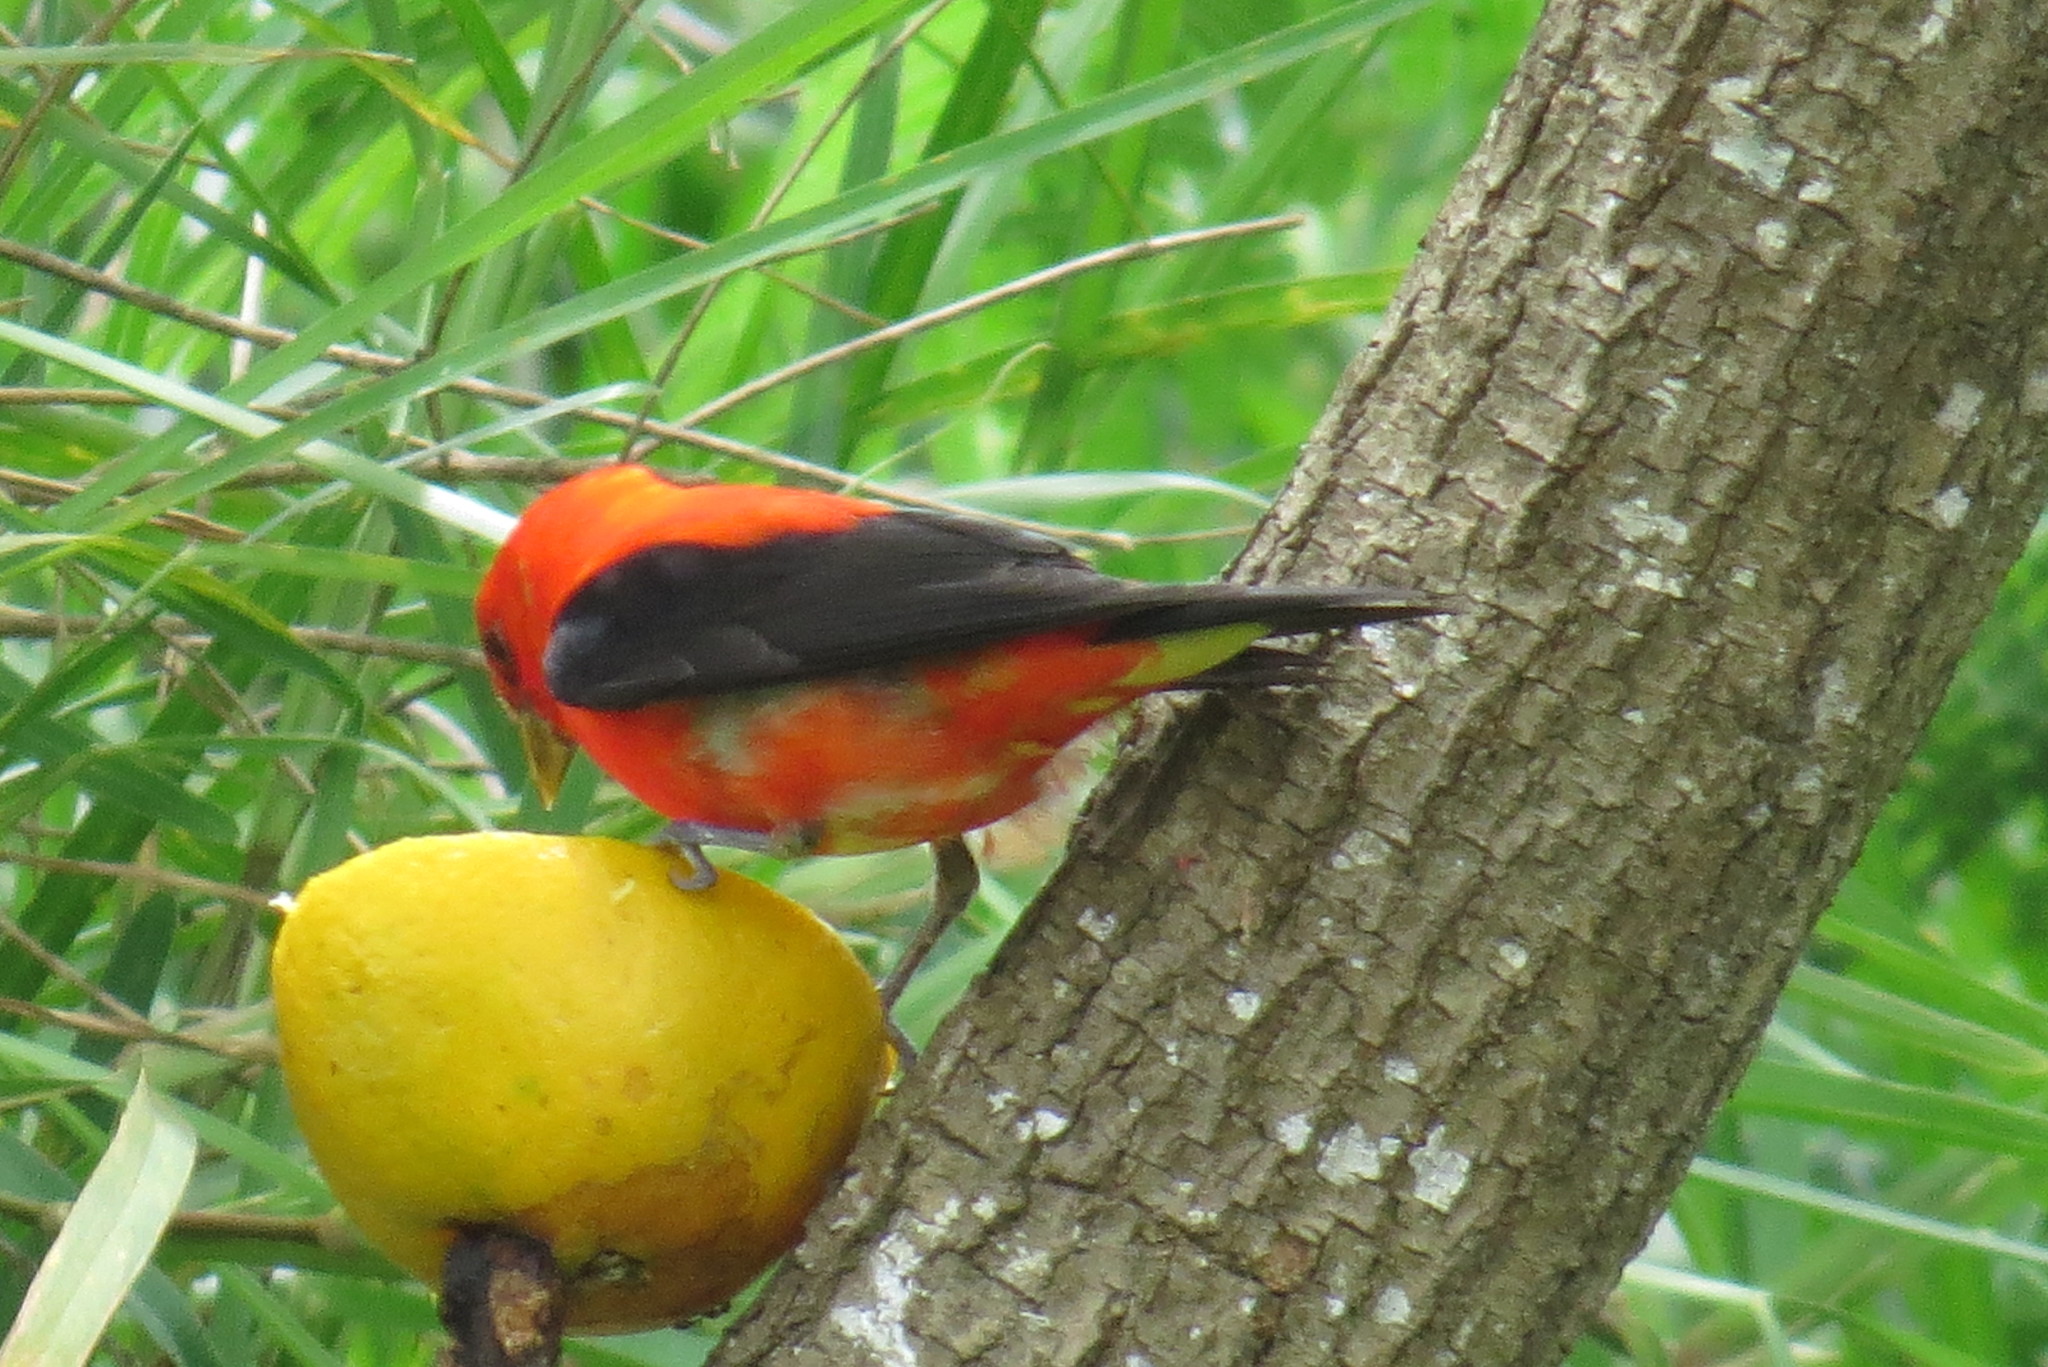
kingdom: Animalia
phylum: Chordata
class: Aves
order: Passeriformes
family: Cardinalidae
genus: Piranga
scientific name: Piranga olivacea
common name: Scarlet tanager
